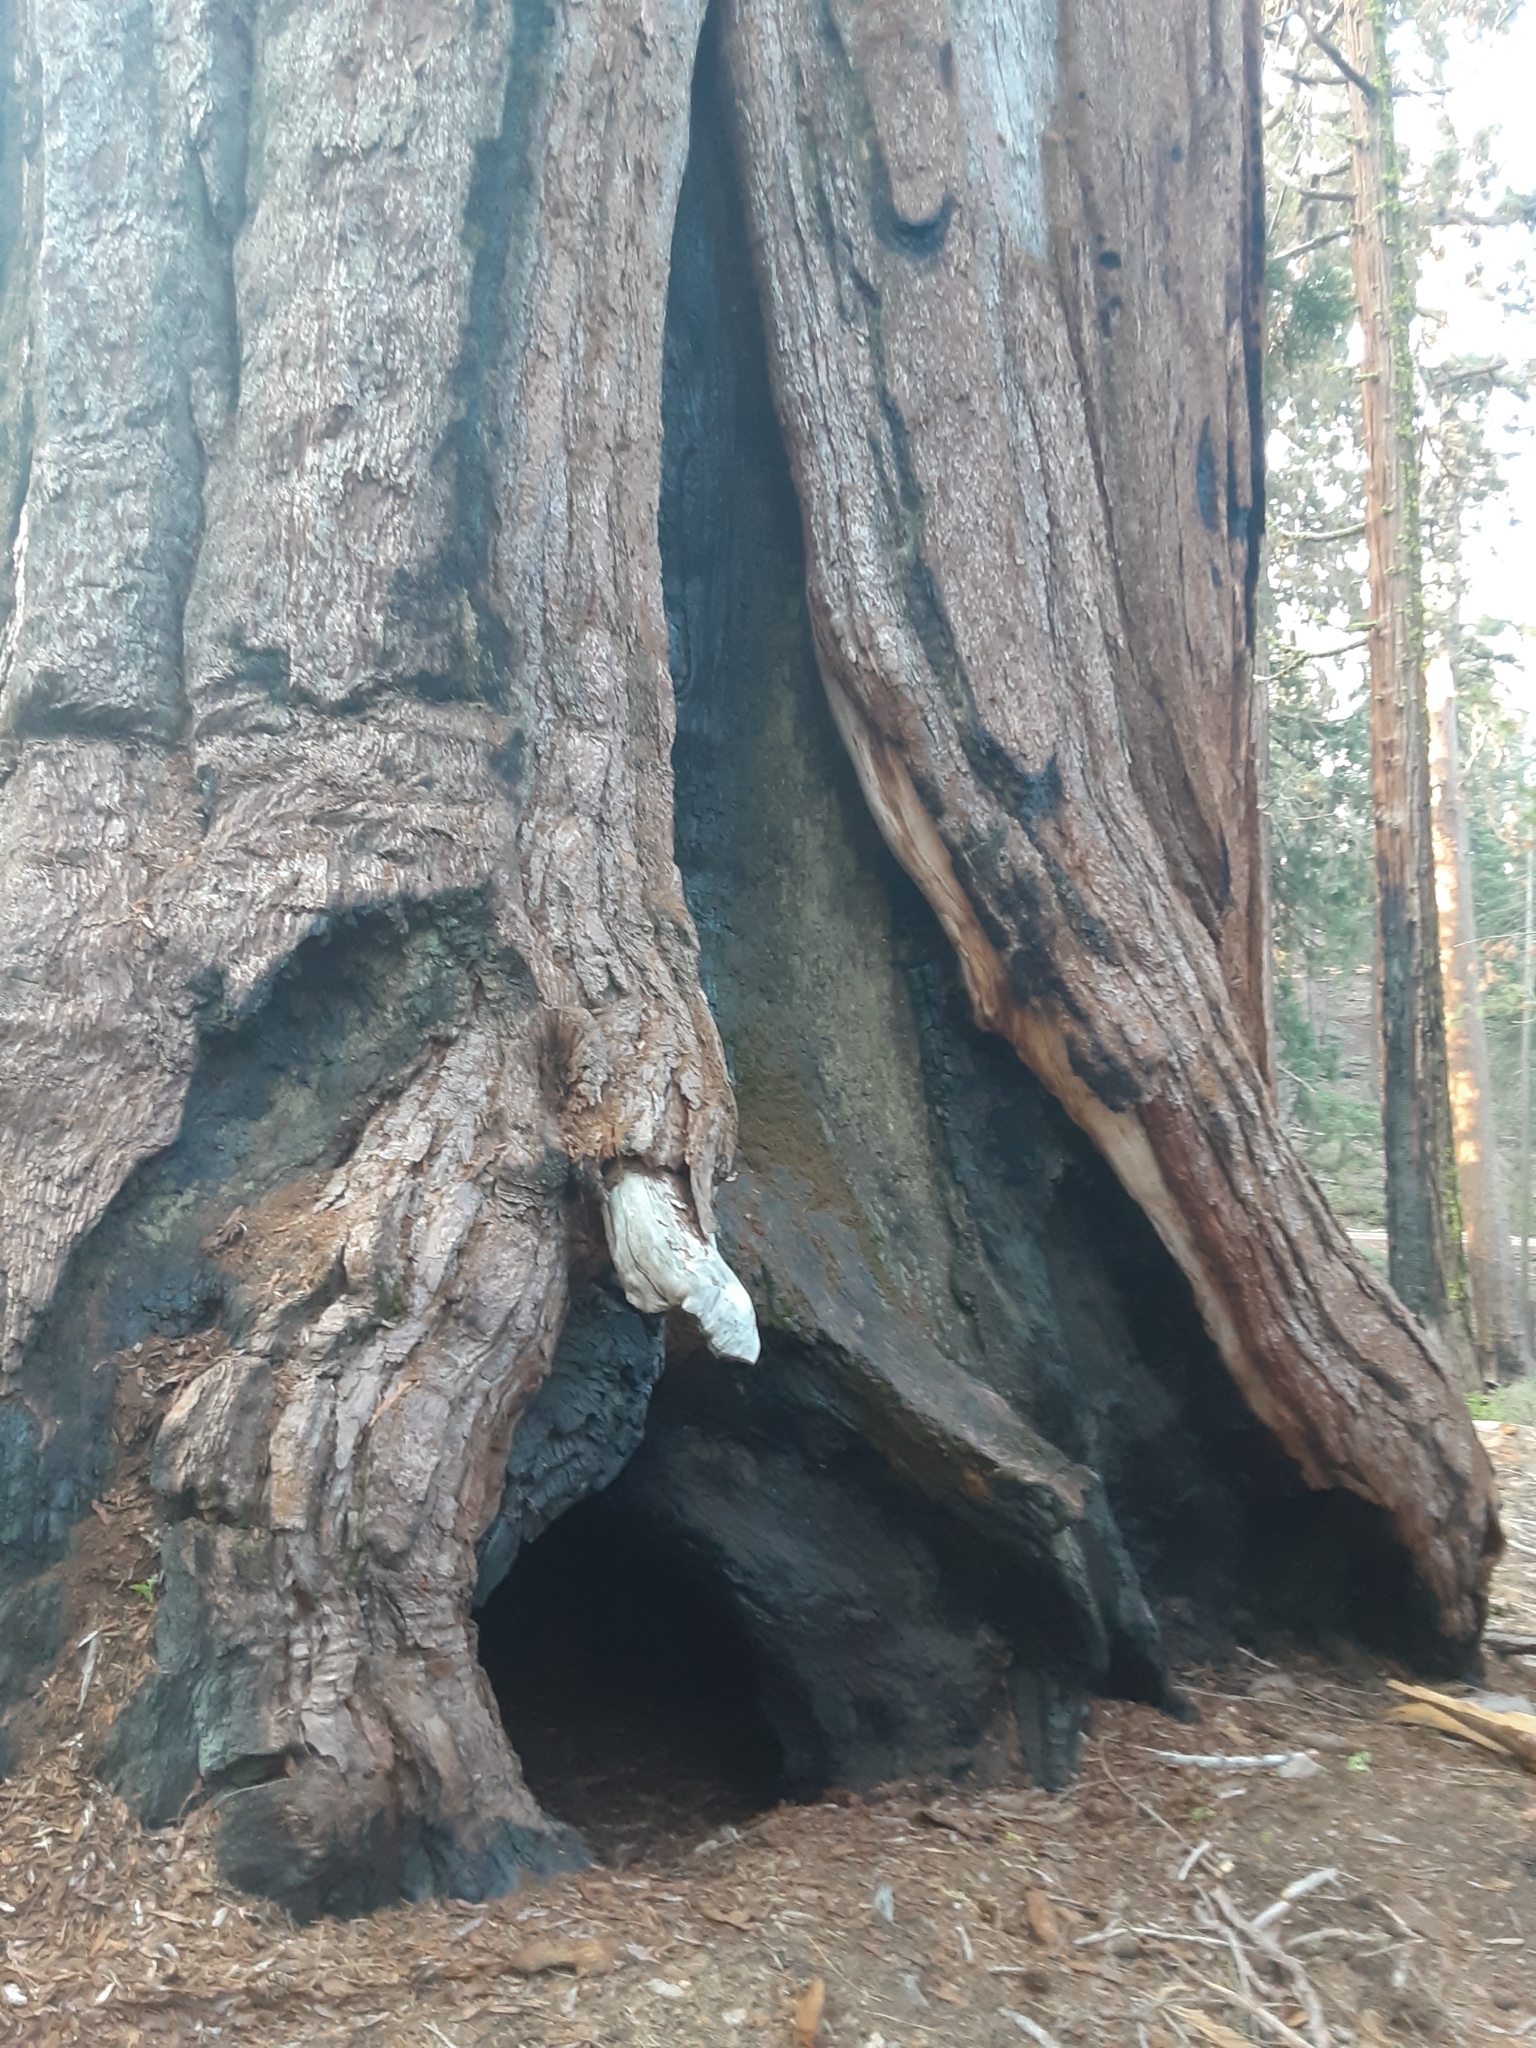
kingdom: Plantae
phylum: Tracheophyta
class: Pinopsida
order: Pinales
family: Cupressaceae
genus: Sequoiadendron
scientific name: Sequoiadendron giganteum
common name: Wellingtonia
